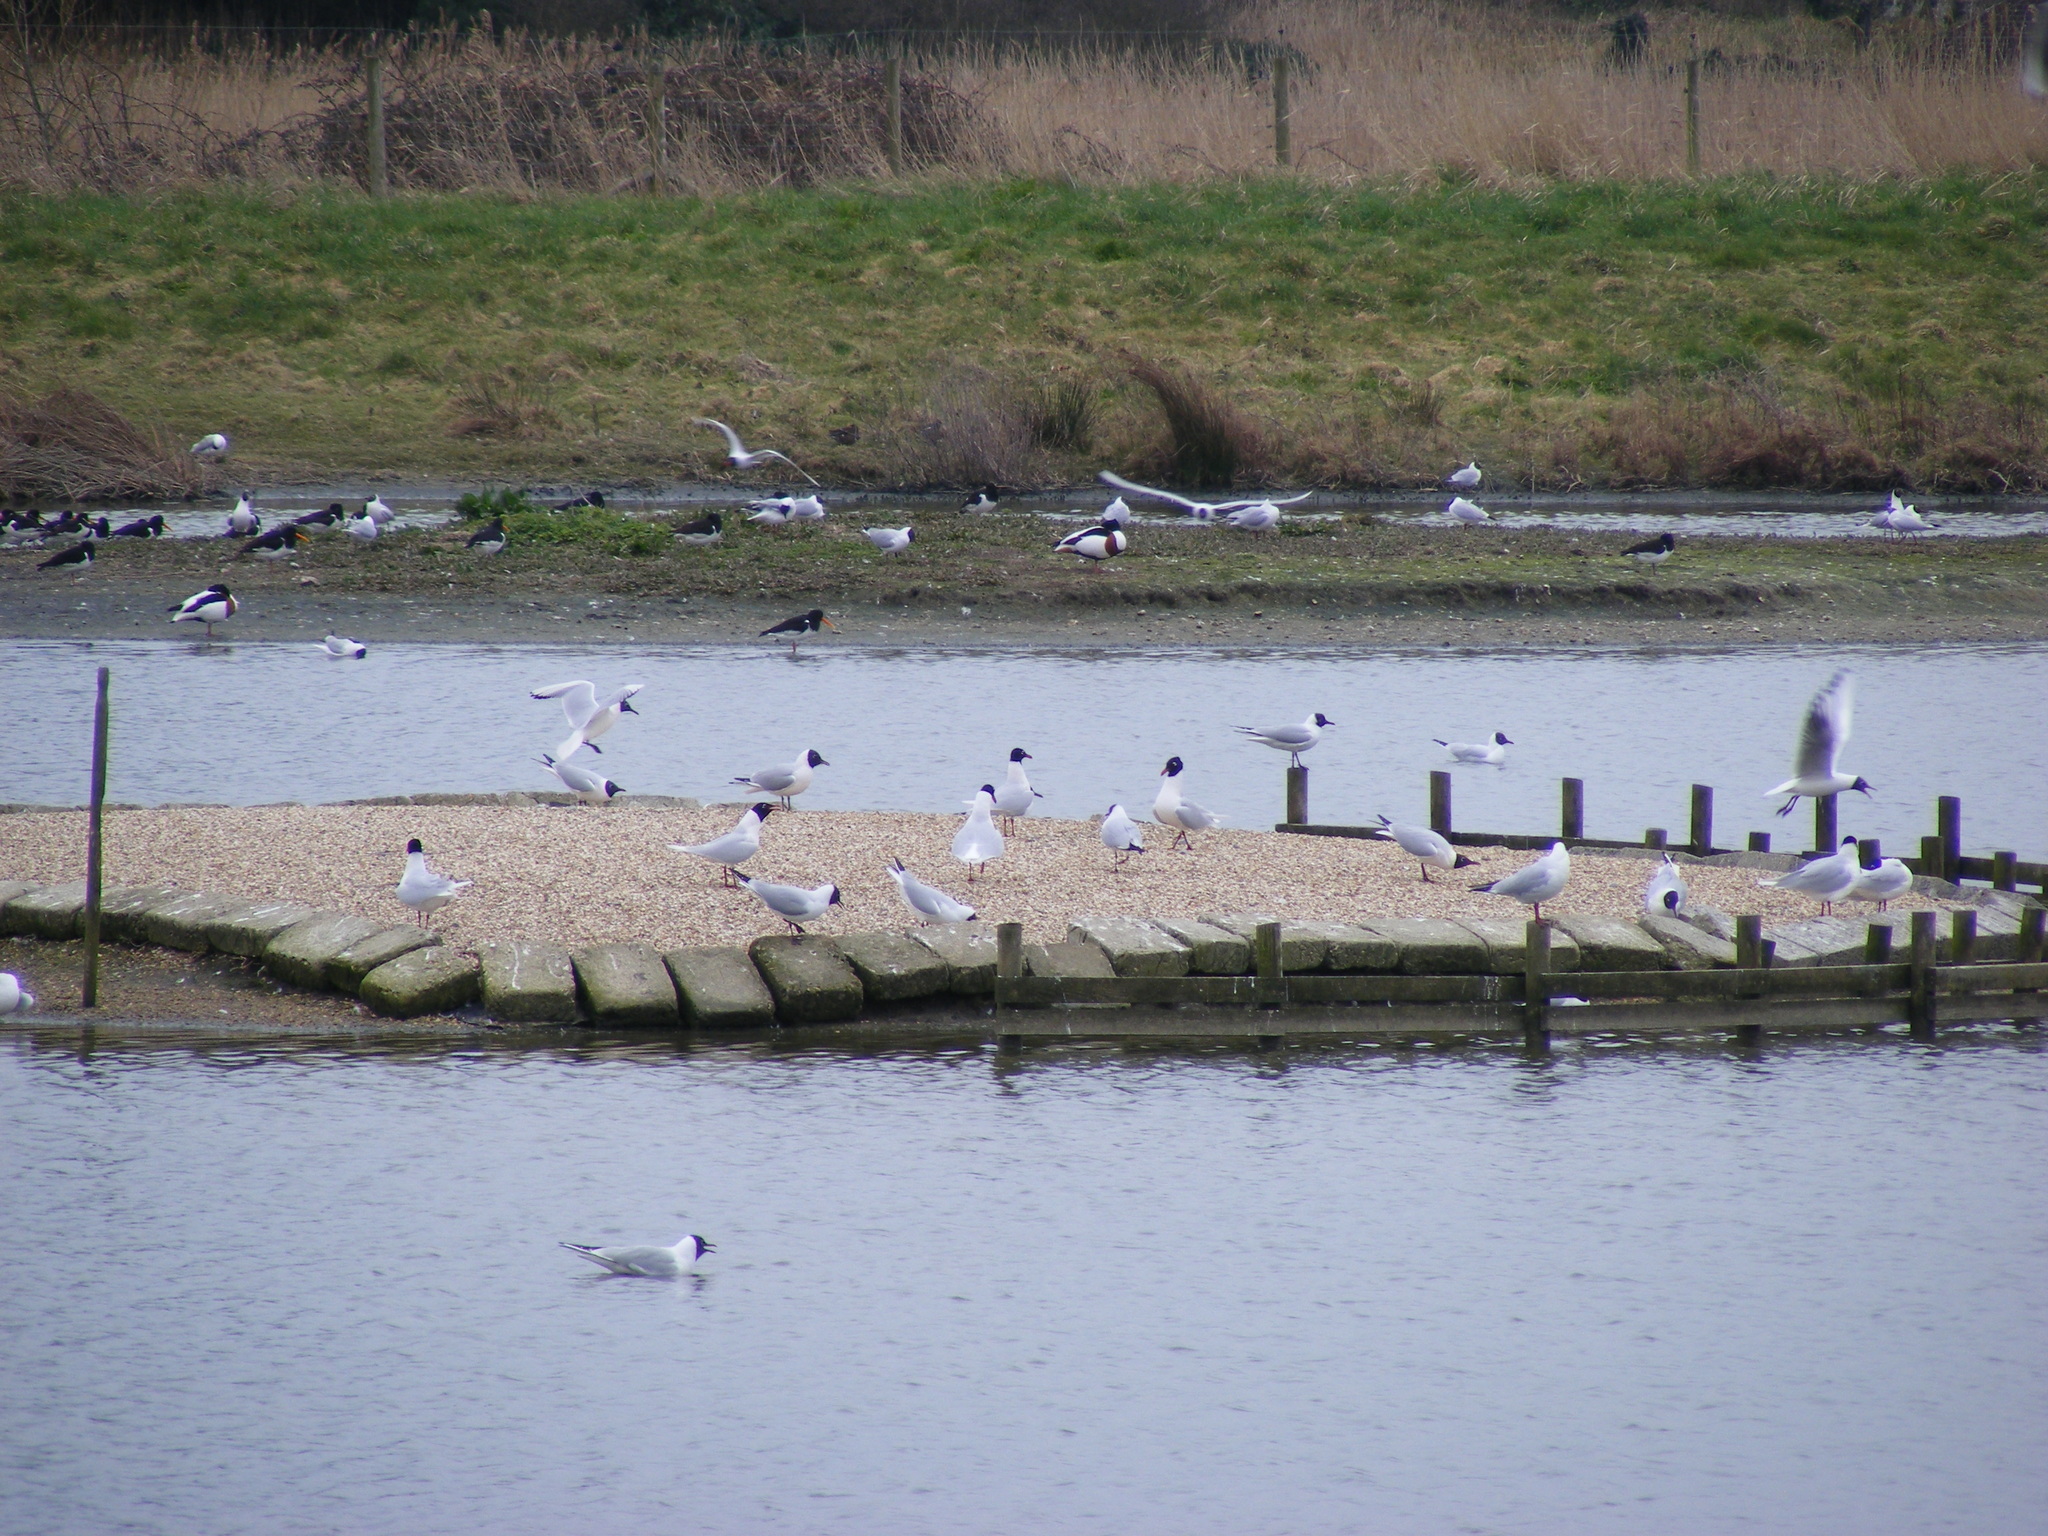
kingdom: Animalia
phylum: Chordata
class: Aves
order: Charadriiformes
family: Haematopodidae
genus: Haematopus
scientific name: Haematopus ostralegus
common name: Eurasian oystercatcher
